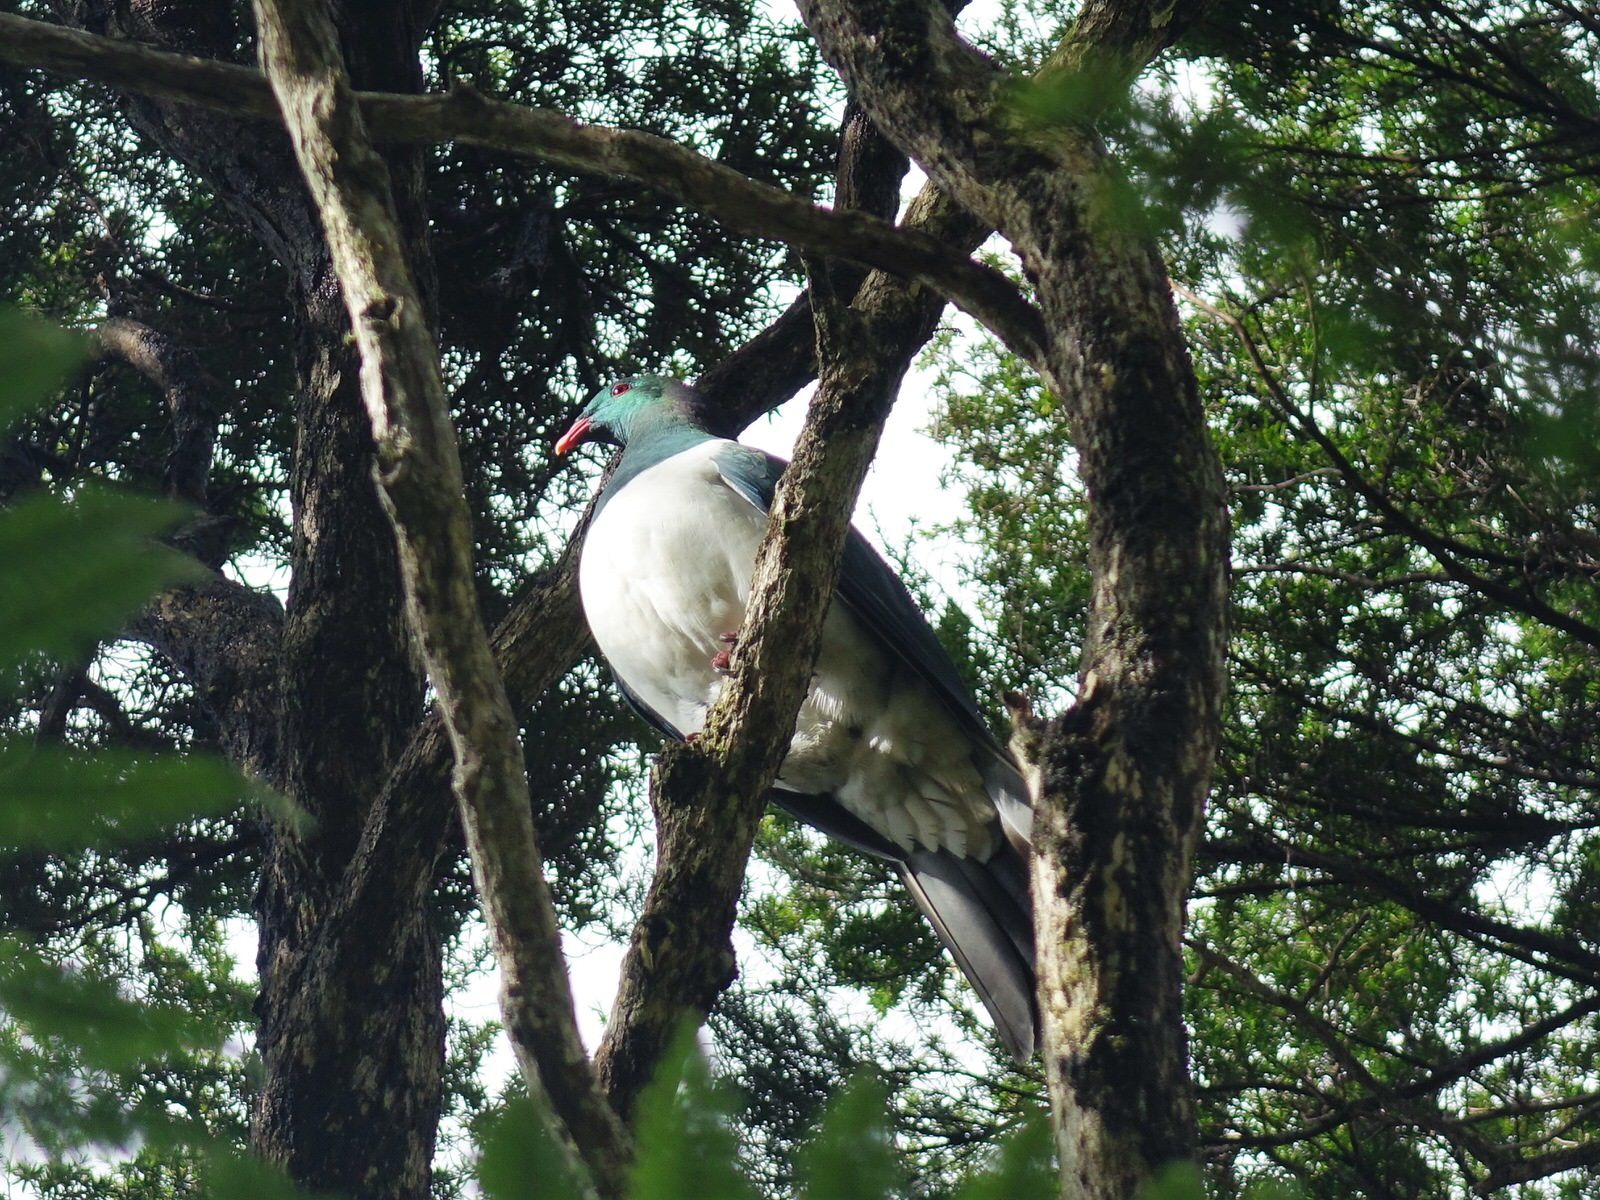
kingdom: Animalia
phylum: Chordata
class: Aves
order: Columbiformes
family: Columbidae
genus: Hemiphaga
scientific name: Hemiphaga novaeseelandiae
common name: New zealand pigeon
